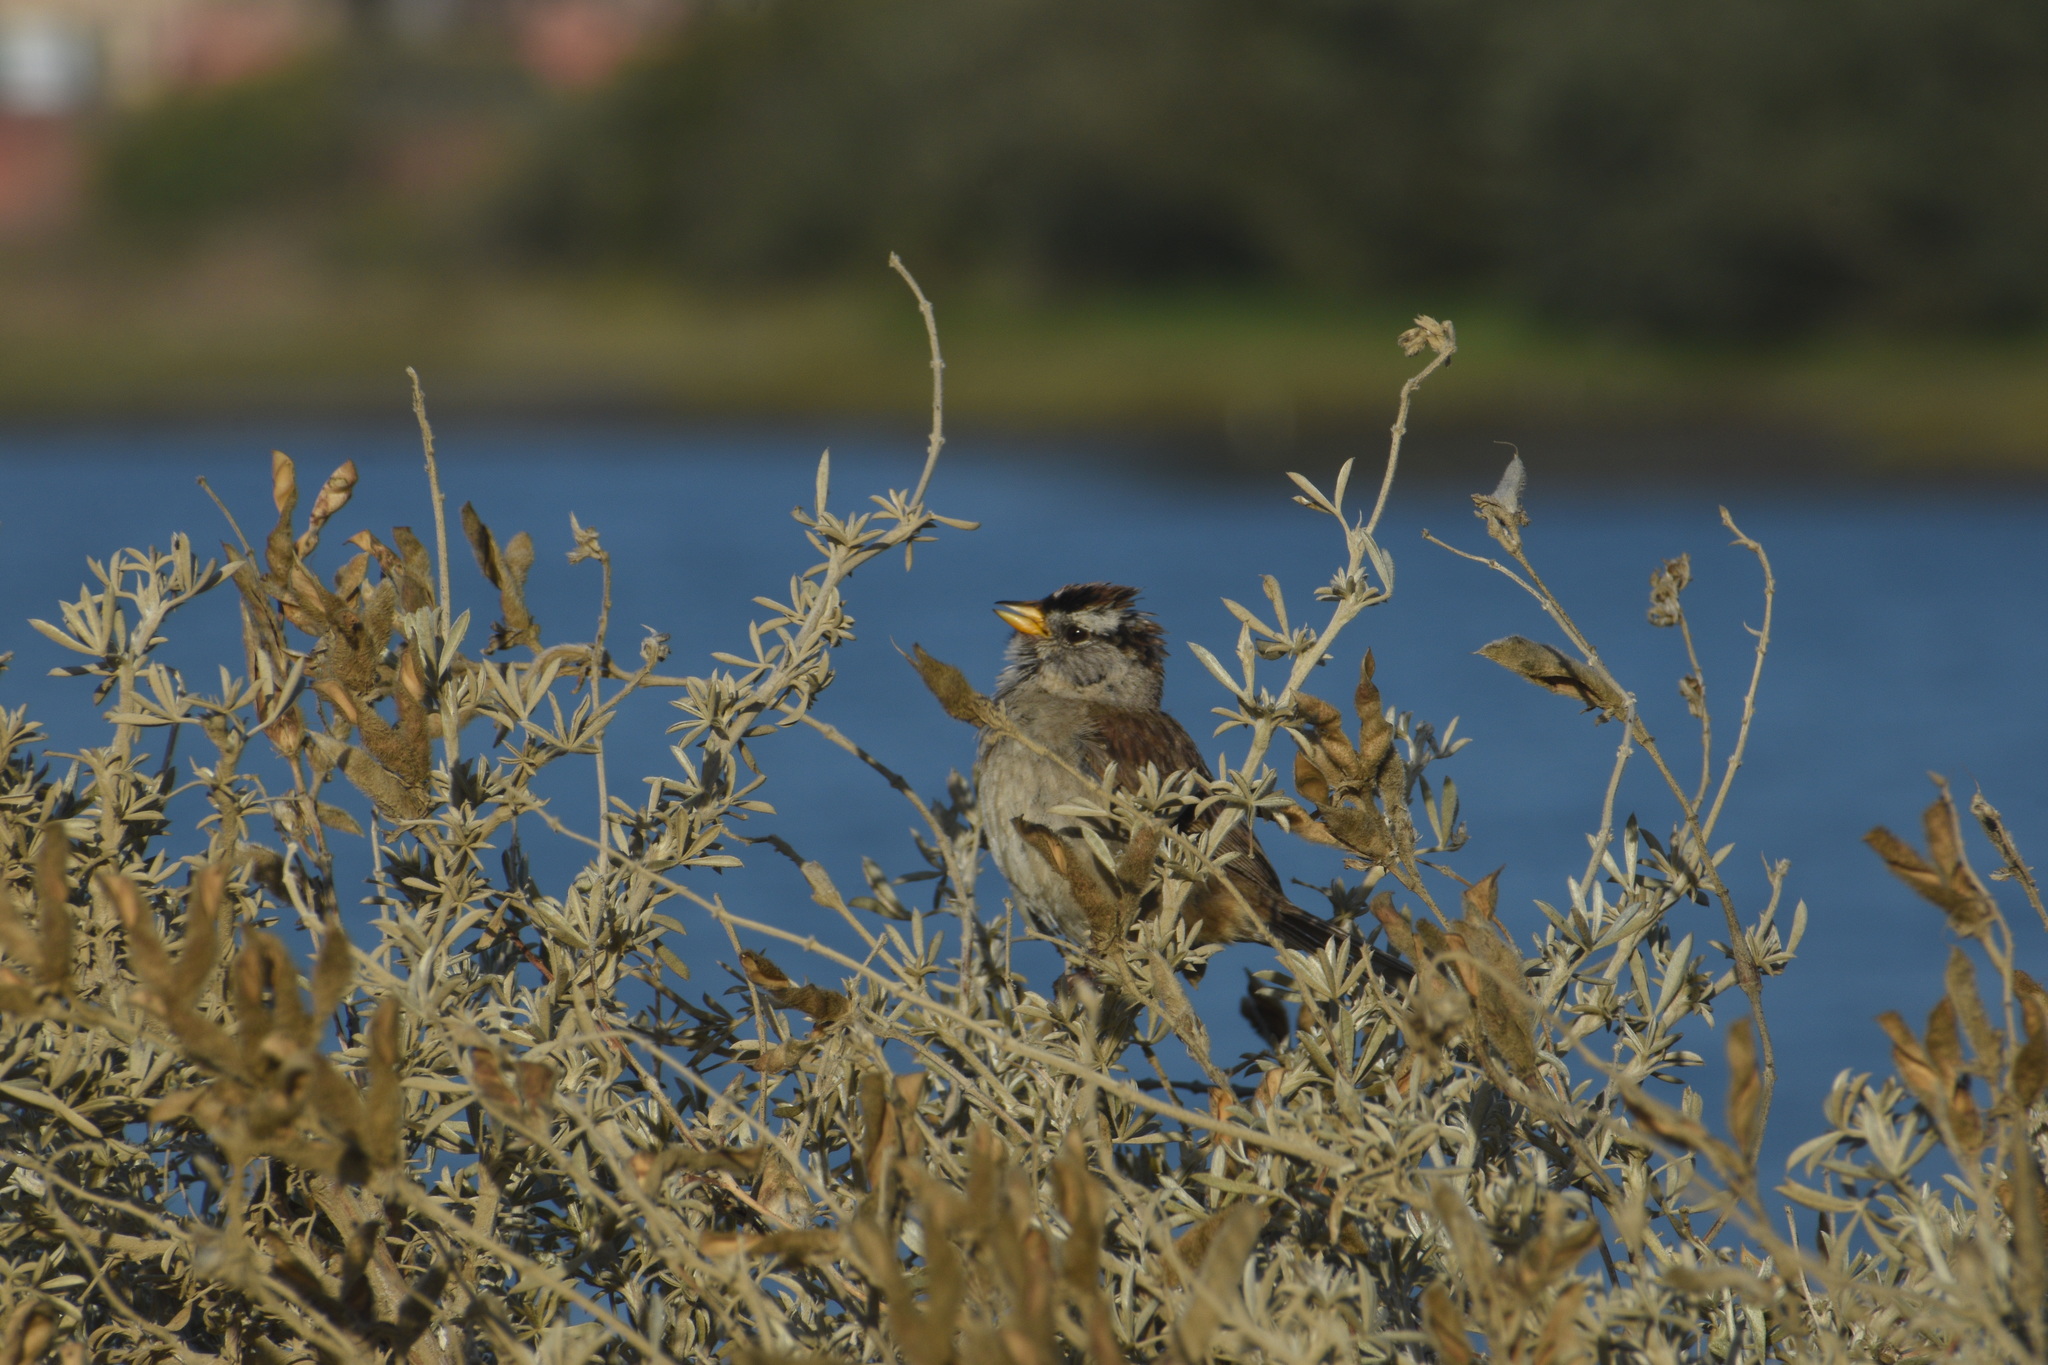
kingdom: Animalia
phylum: Chordata
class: Aves
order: Passeriformes
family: Passerellidae
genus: Zonotrichia
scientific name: Zonotrichia leucophrys
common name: White-crowned sparrow
